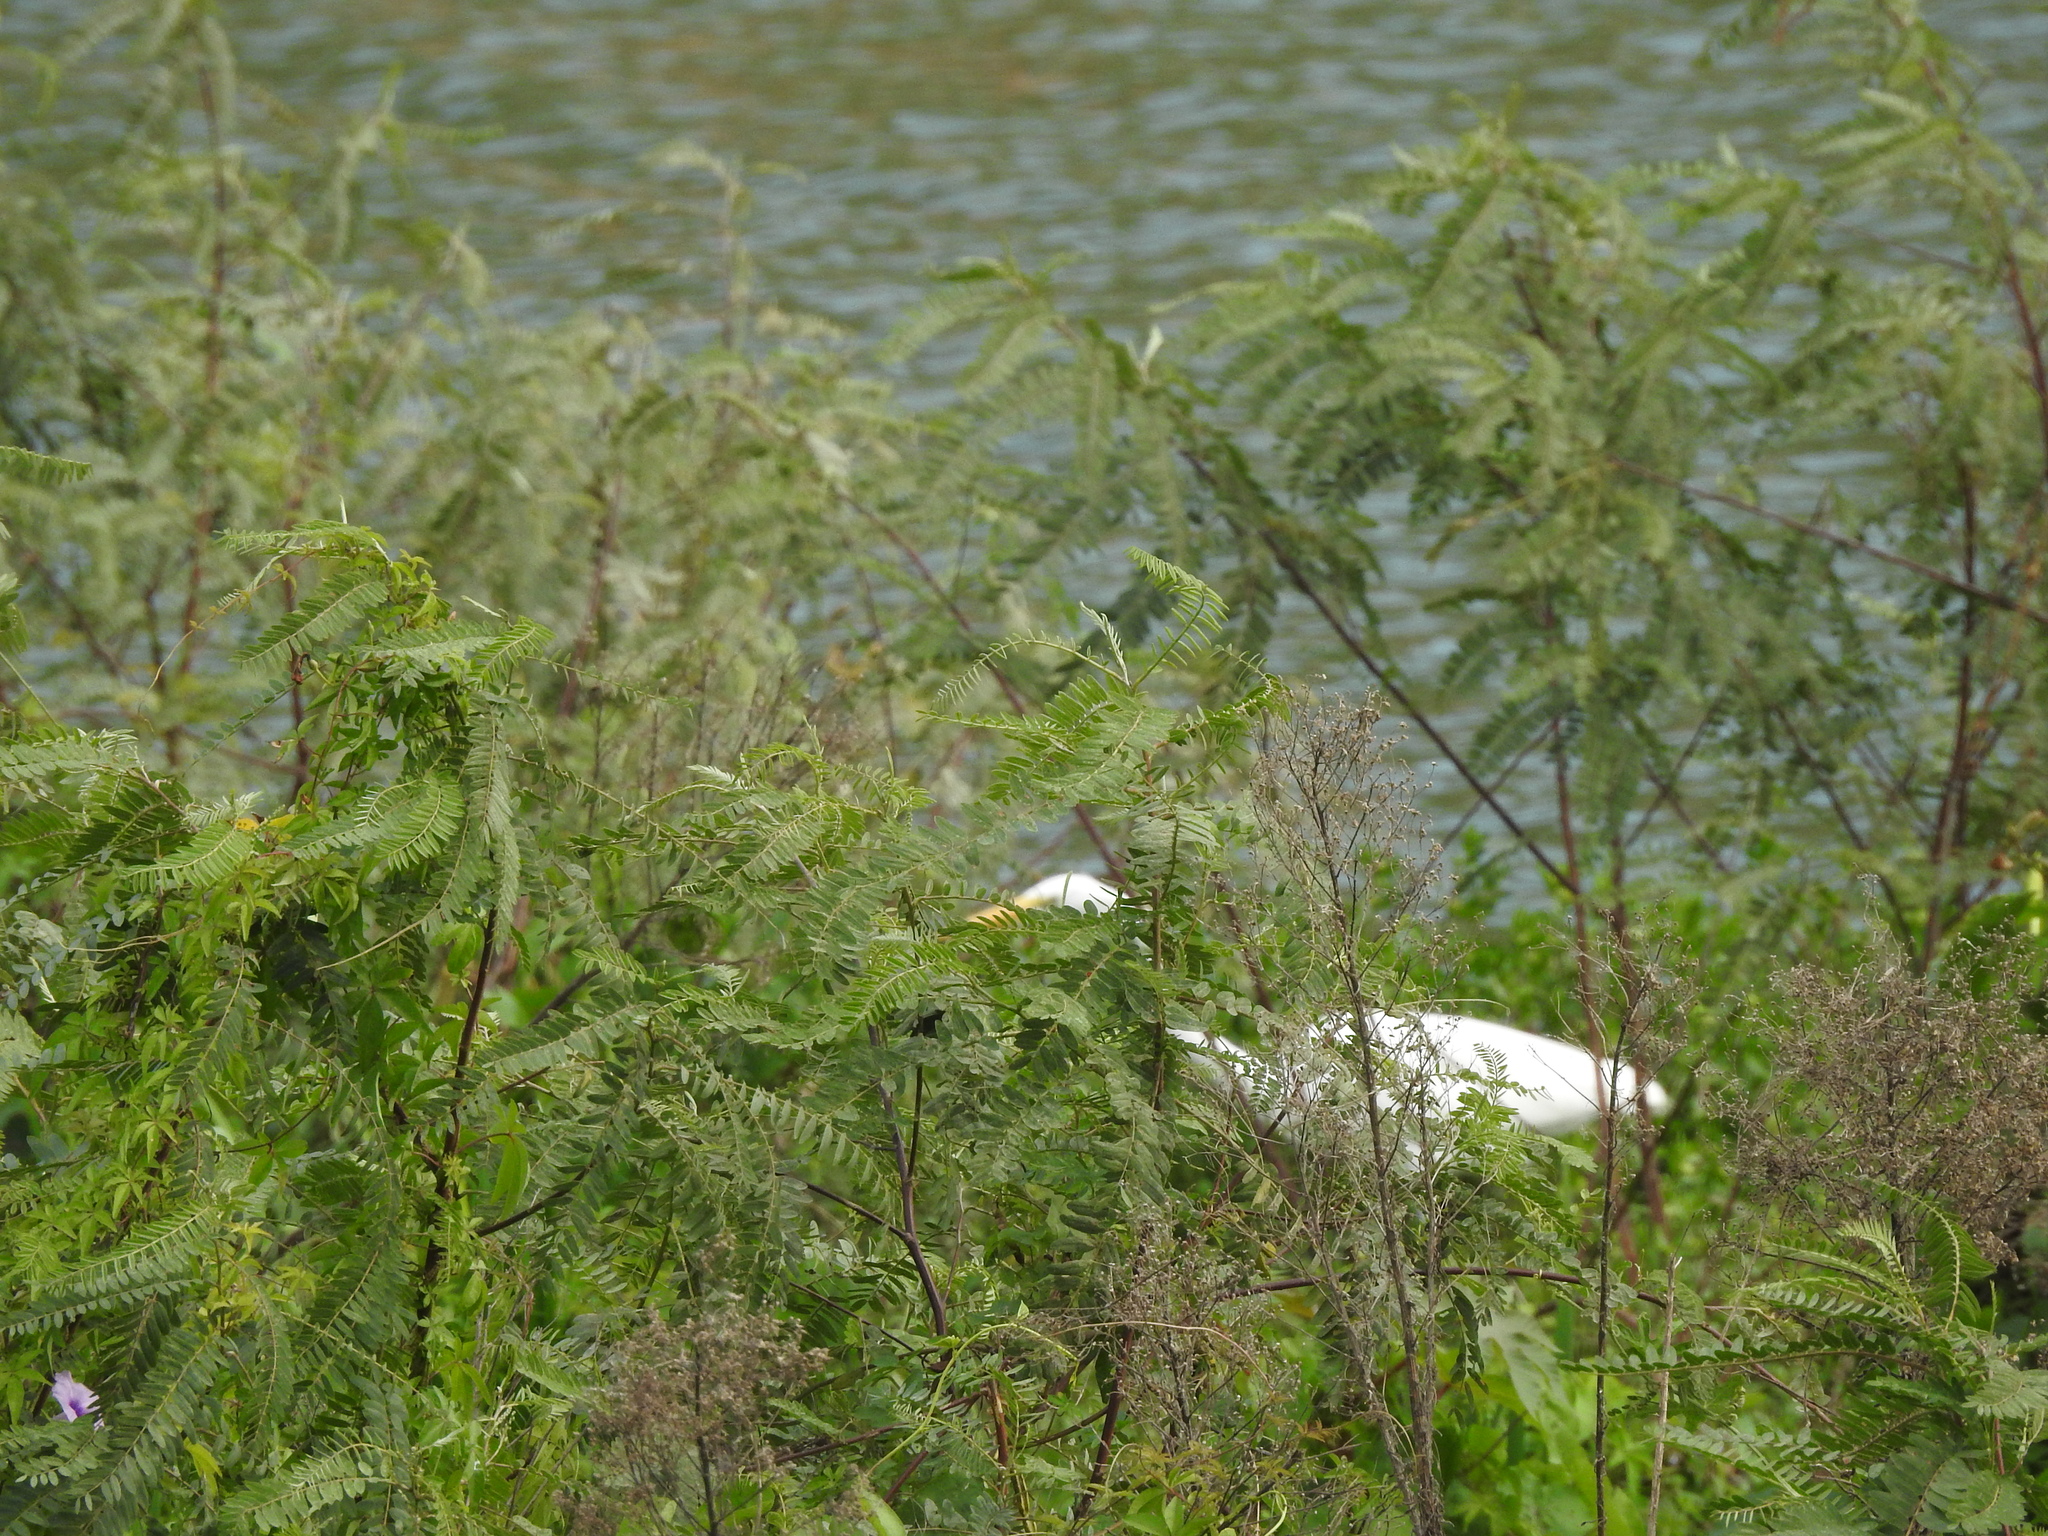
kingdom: Animalia
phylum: Chordata
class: Aves
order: Pelecaniformes
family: Ardeidae
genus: Ardea
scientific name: Ardea alba
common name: Great egret
